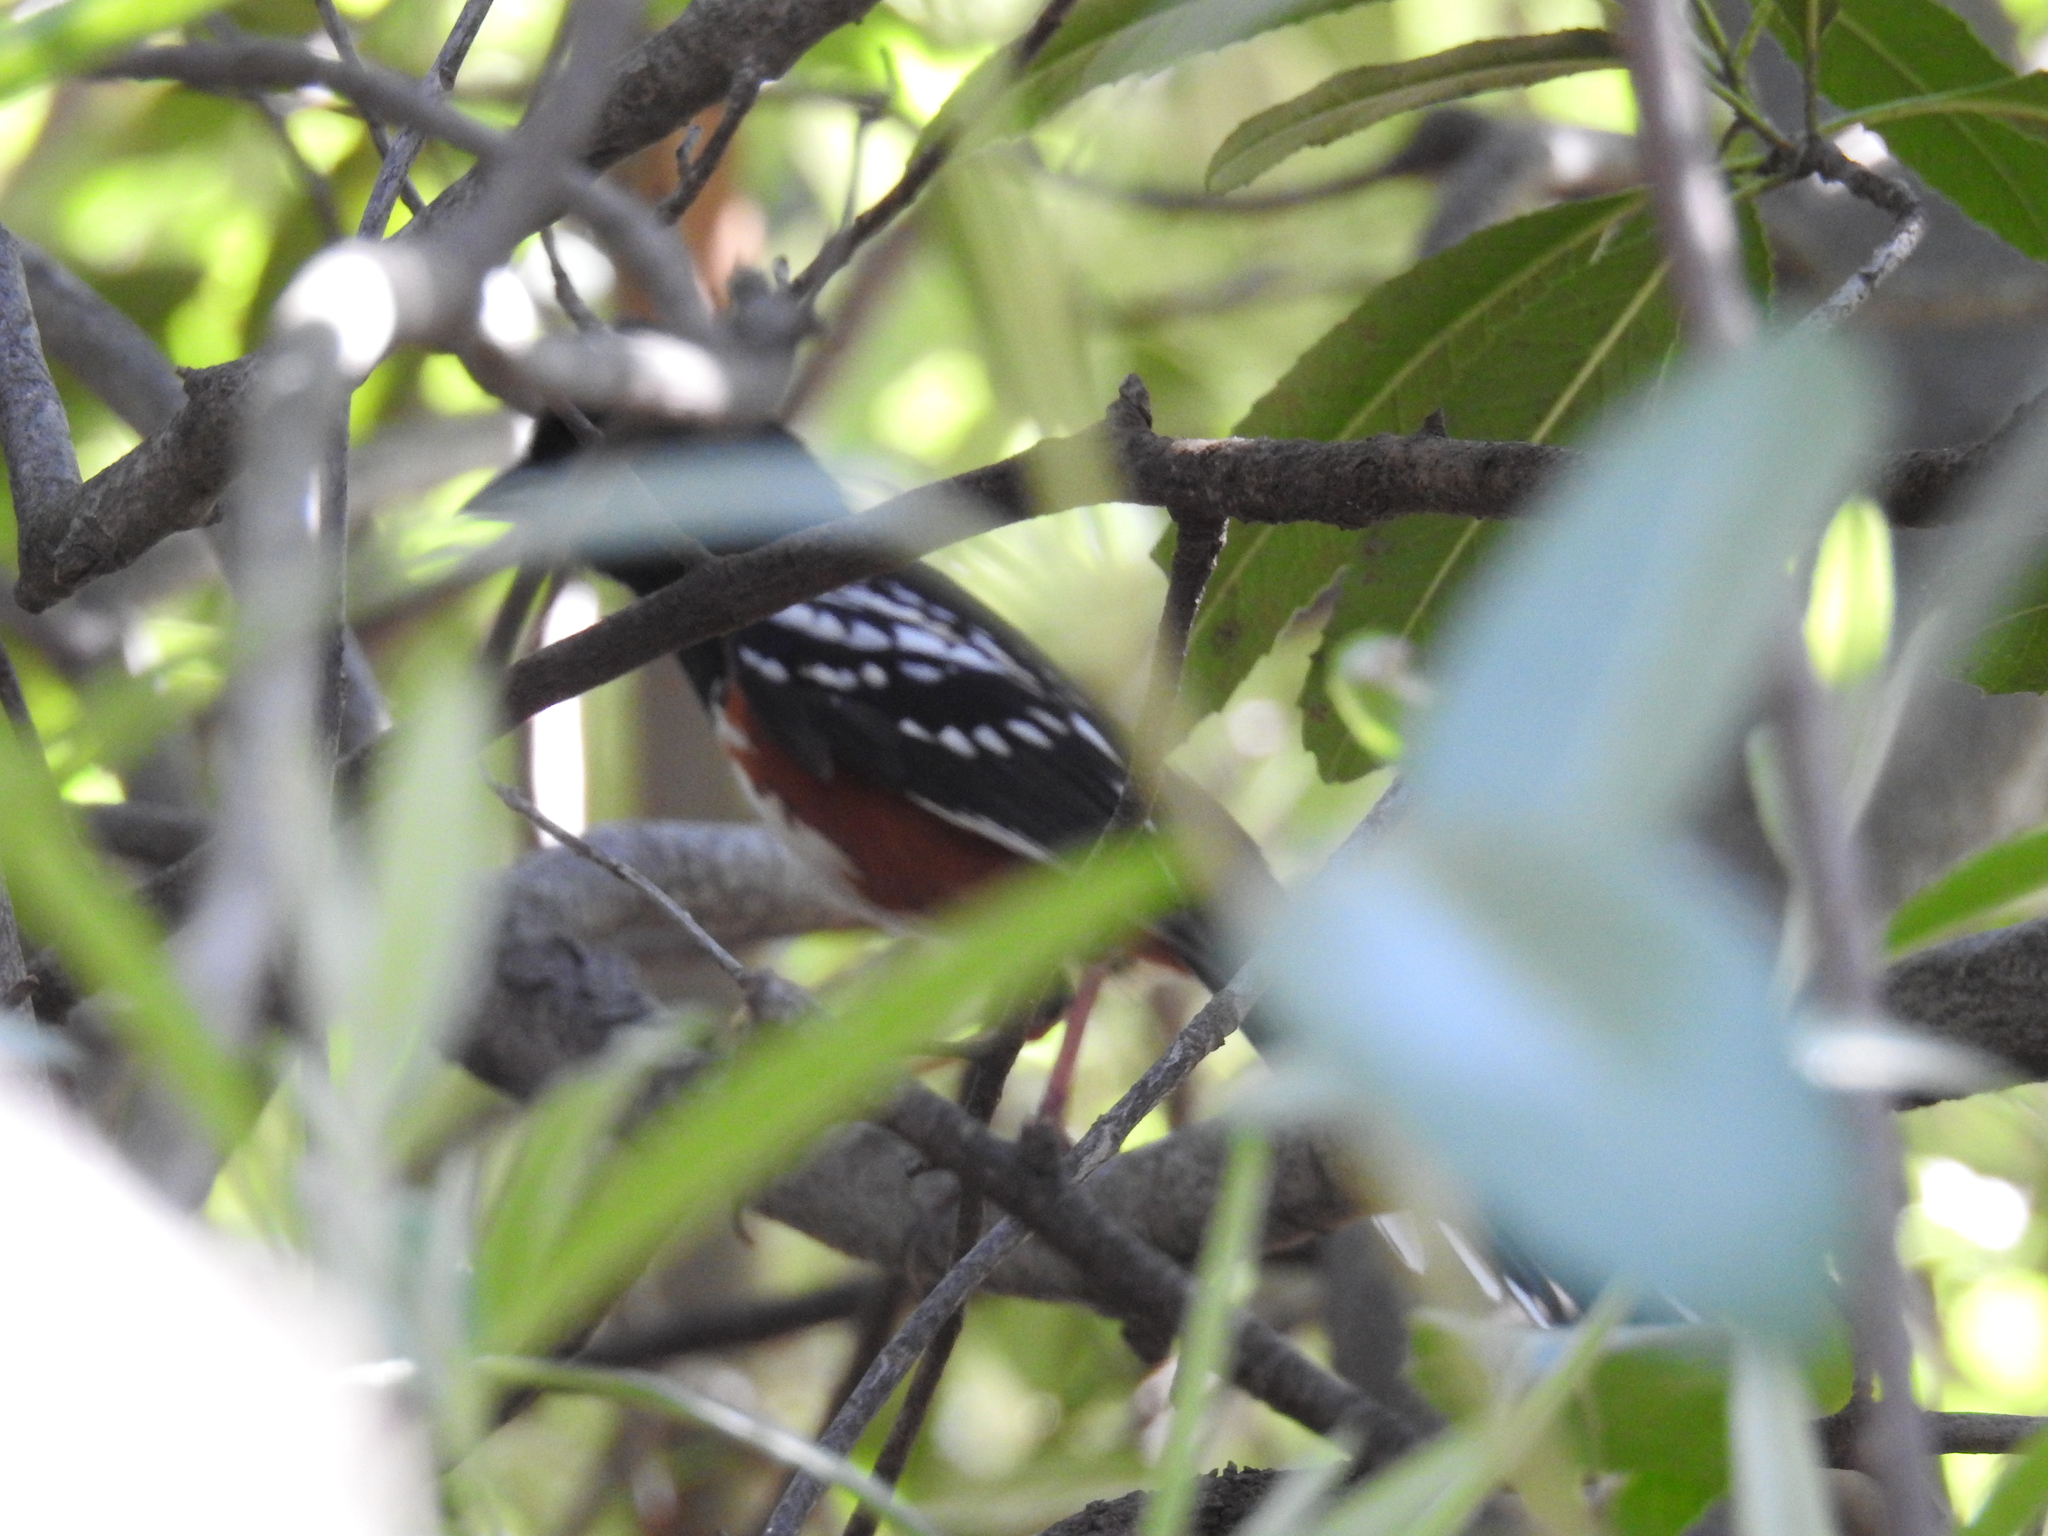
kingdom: Animalia
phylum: Chordata
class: Aves
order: Passeriformes
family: Passerellidae
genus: Pipilo
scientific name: Pipilo maculatus
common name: Spotted towhee
